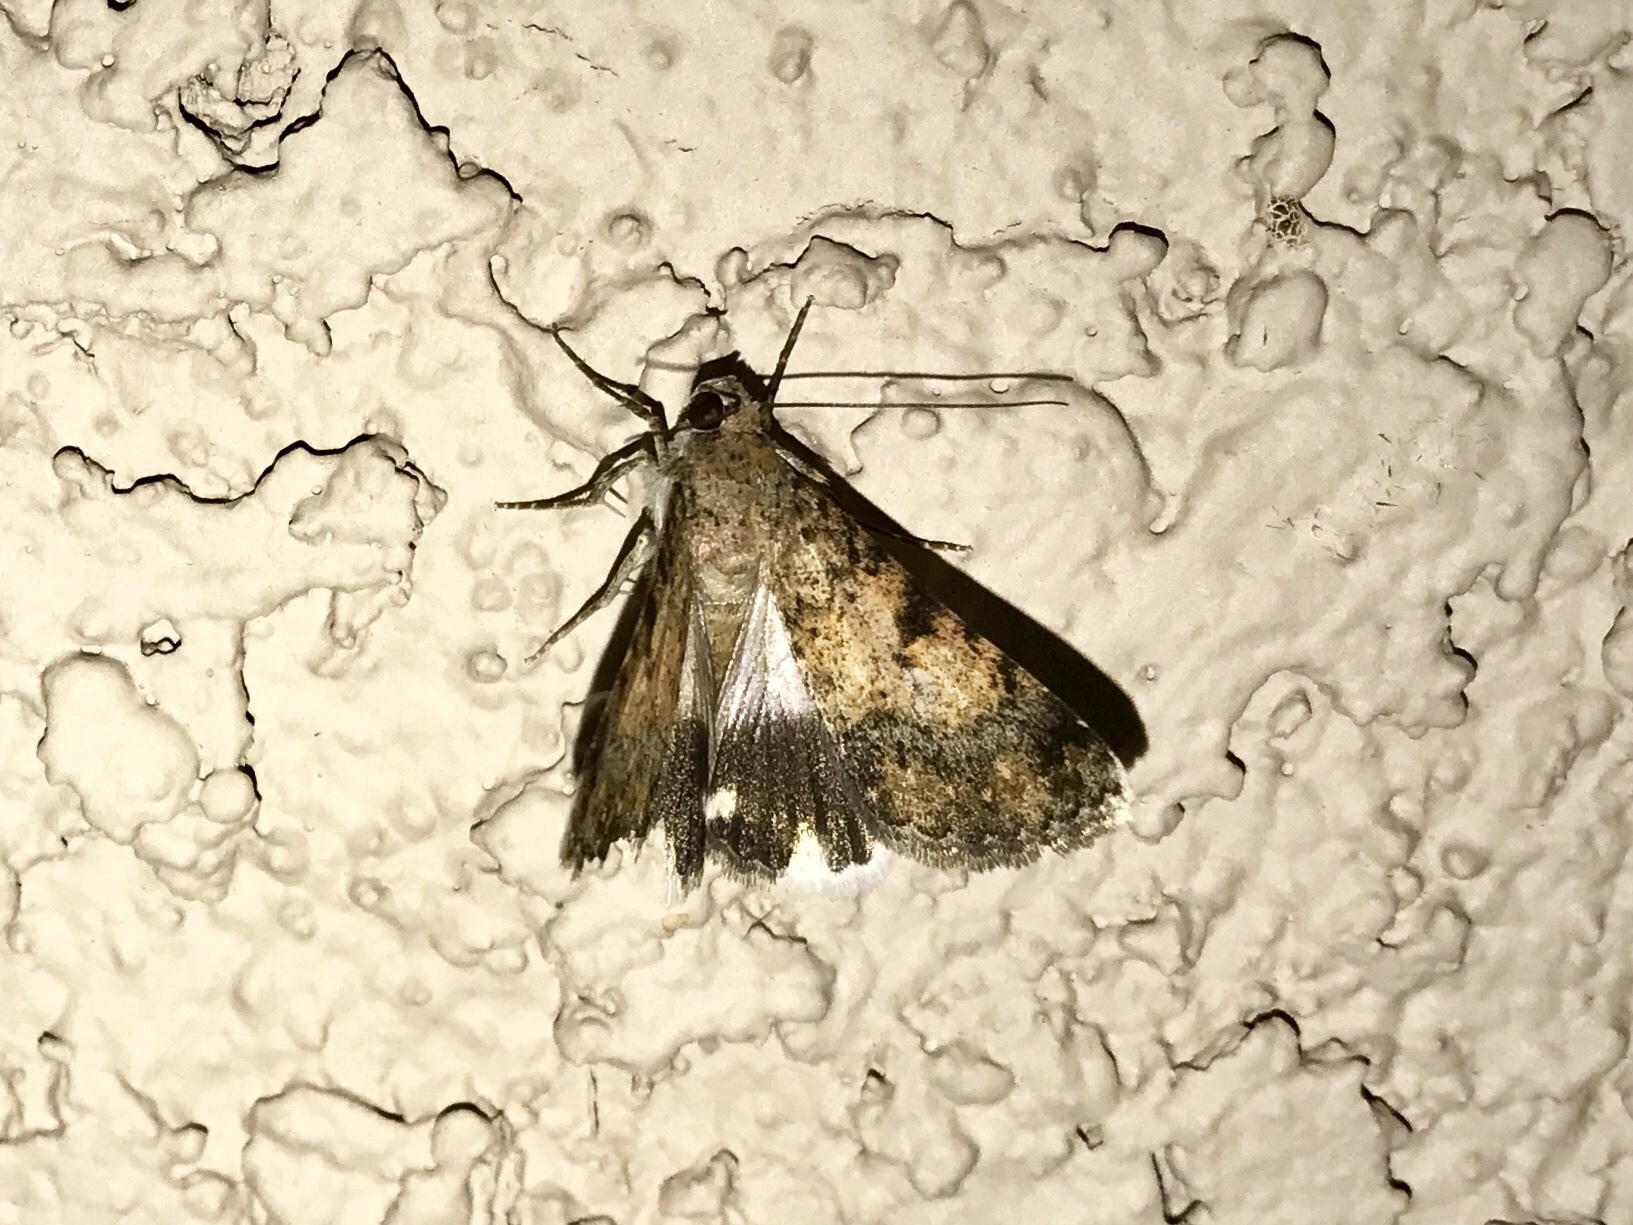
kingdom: Animalia
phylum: Arthropoda
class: Insecta
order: Lepidoptera
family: Erebidae
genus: Melipotis
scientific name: Melipotis jucunda
